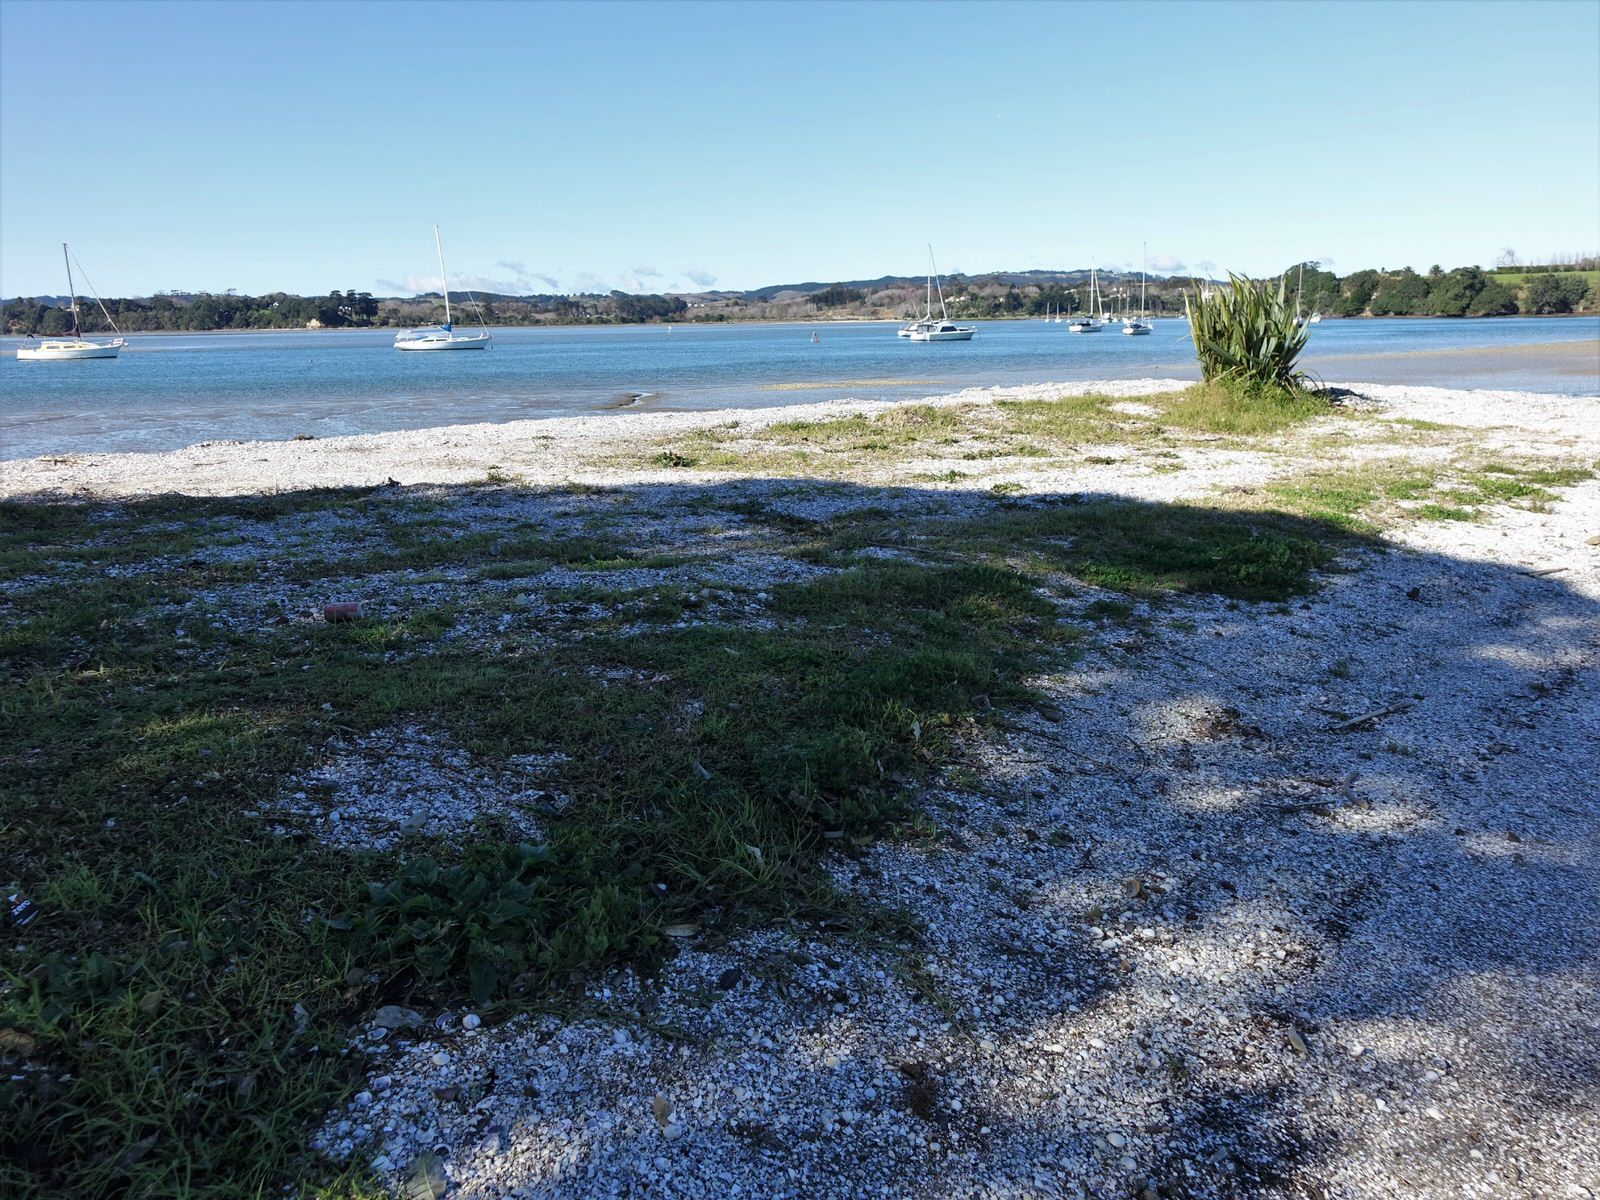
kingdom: Plantae
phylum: Tracheophyta
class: Magnoliopsida
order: Caryophyllales
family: Amaranthaceae
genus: Atriplex
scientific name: Atriplex prostrata
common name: Spear-leaved orache
